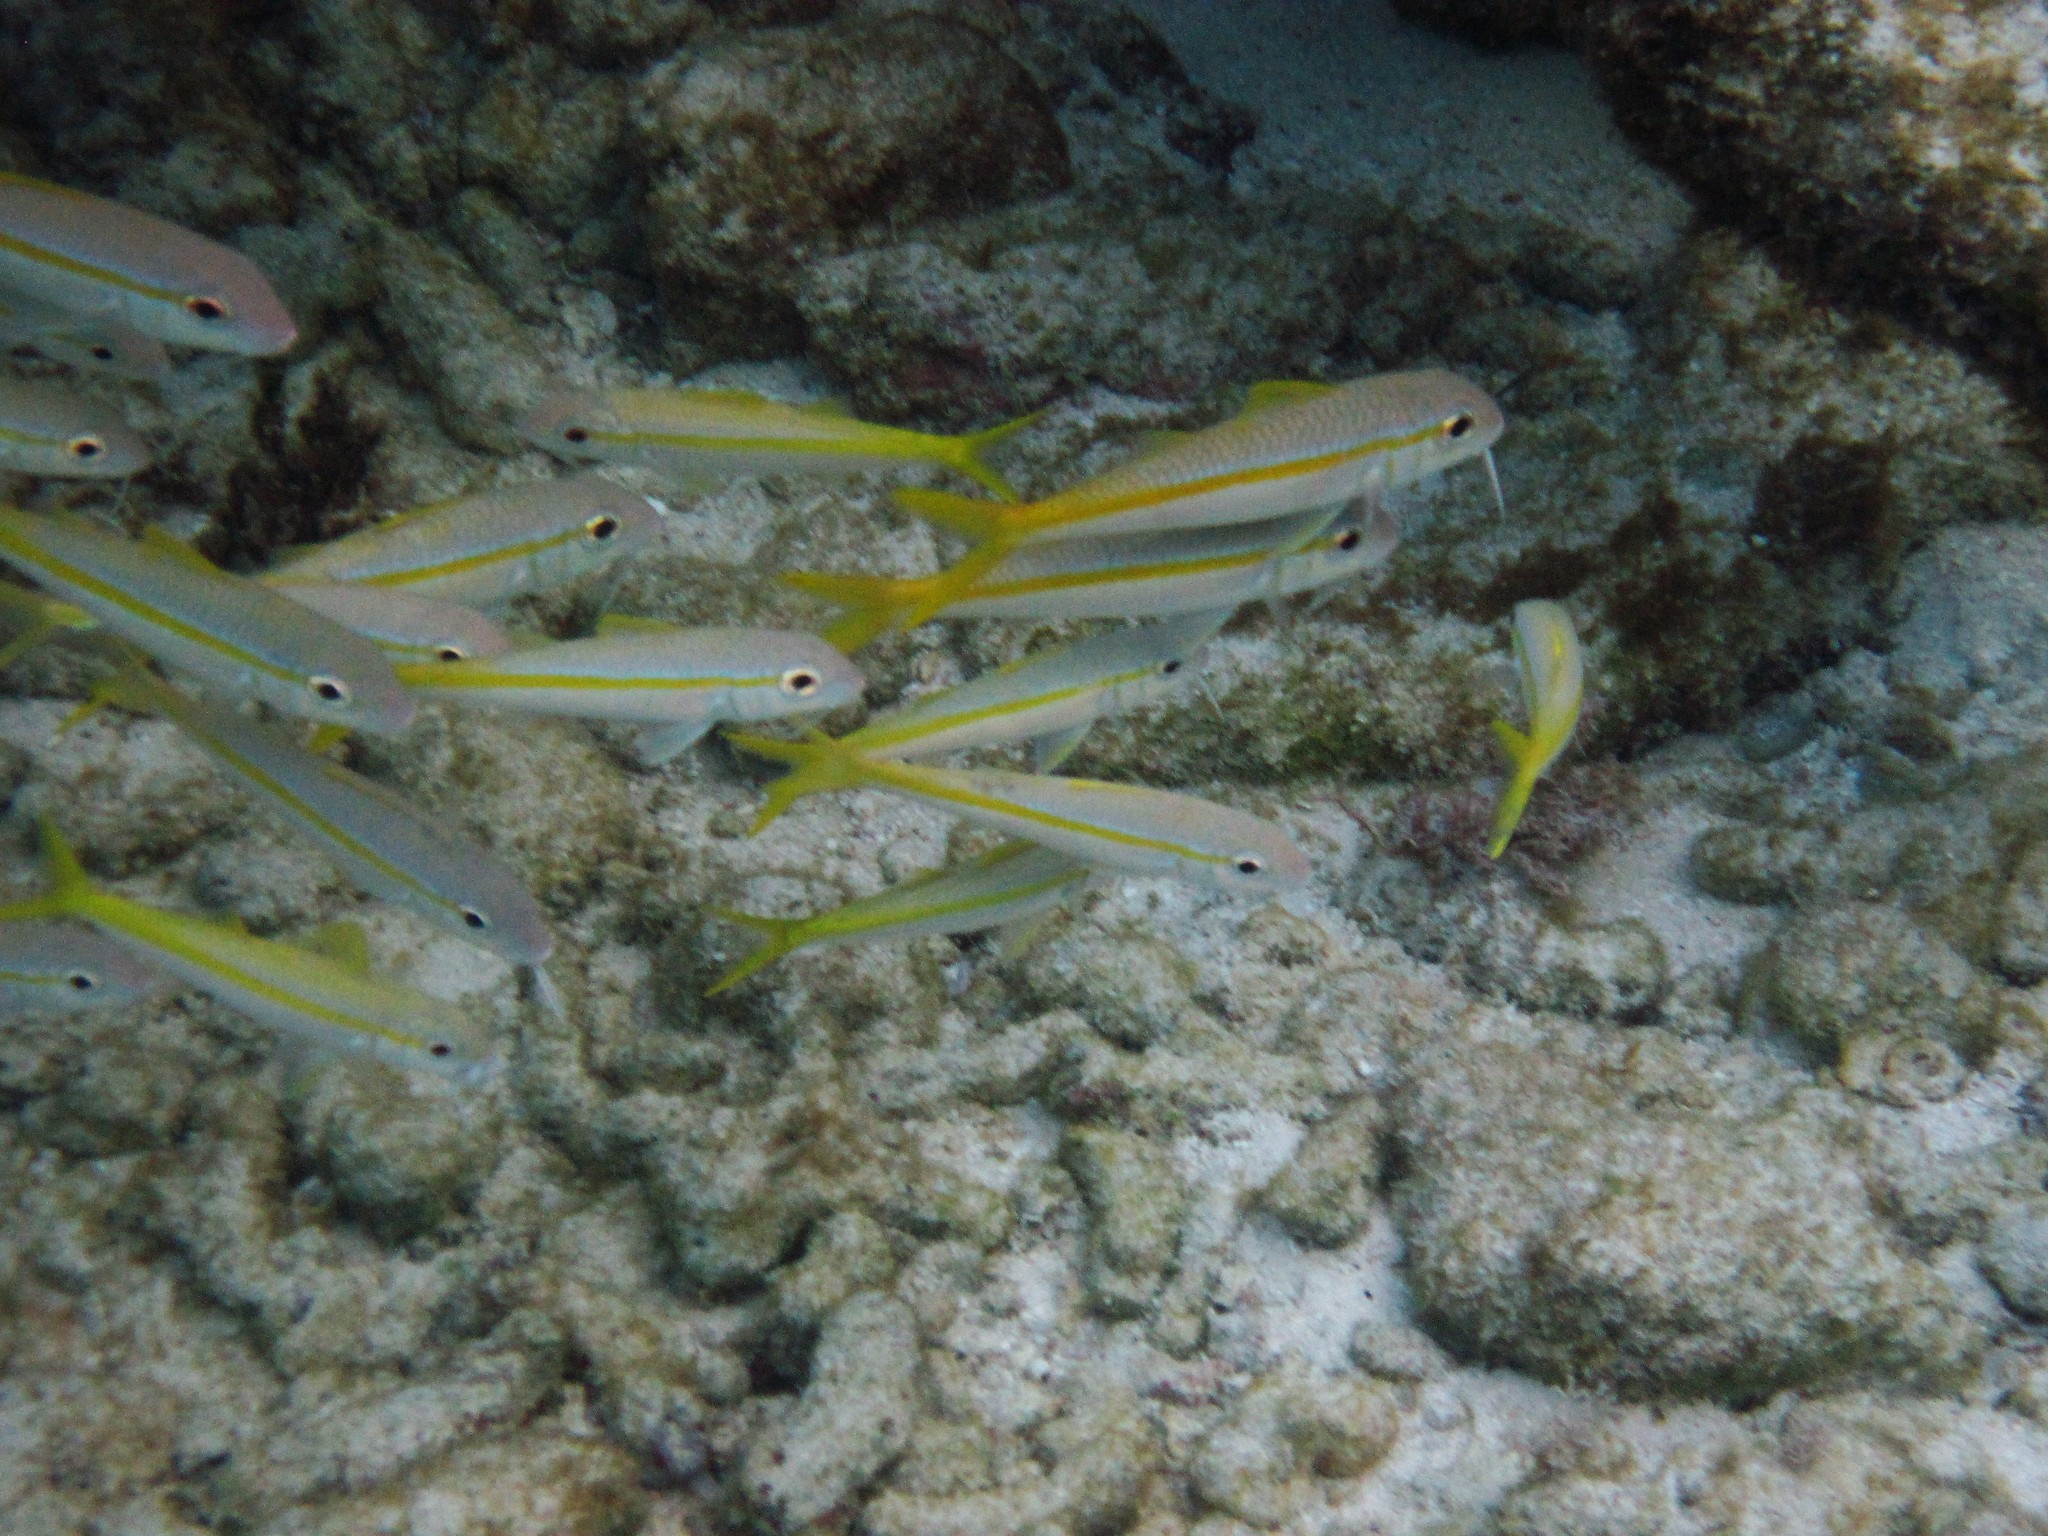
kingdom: Animalia
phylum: Chordata
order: Perciformes
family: Mullidae
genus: Mulloidichthys
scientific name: Mulloidichthys martinicus
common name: Yellow goatfish
